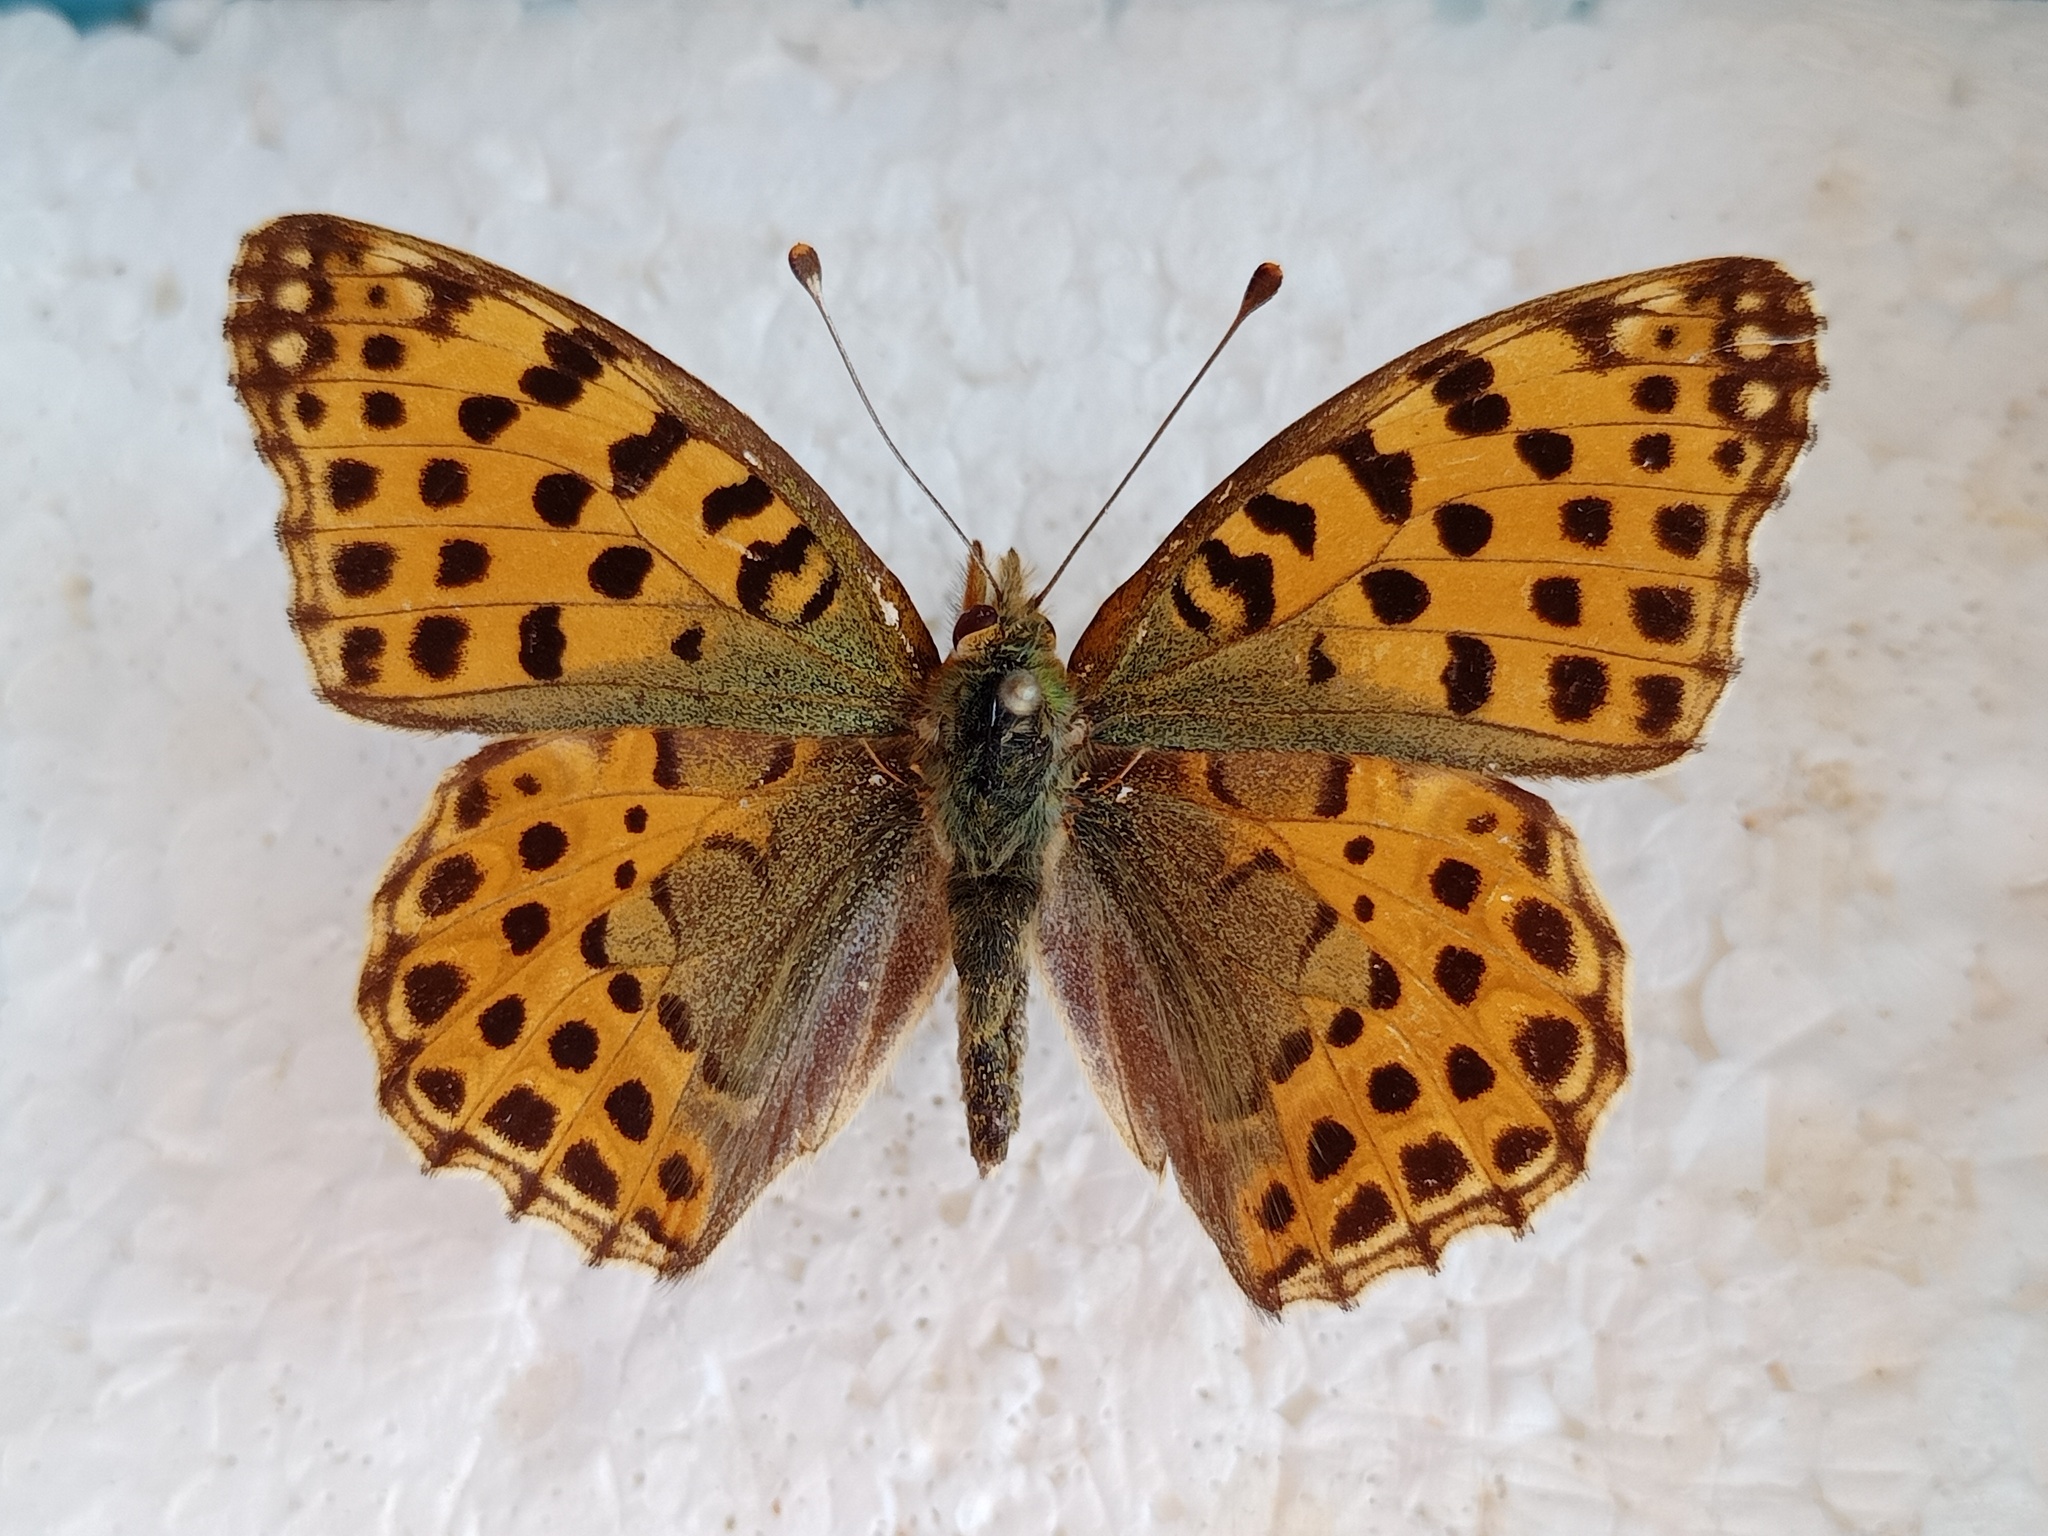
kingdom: Animalia
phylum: Arthropoda
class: Insecta
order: Lepidoptera
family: Nymphalidae
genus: Issoria
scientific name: Issoria lathonia
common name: Queen of spain fritillary
